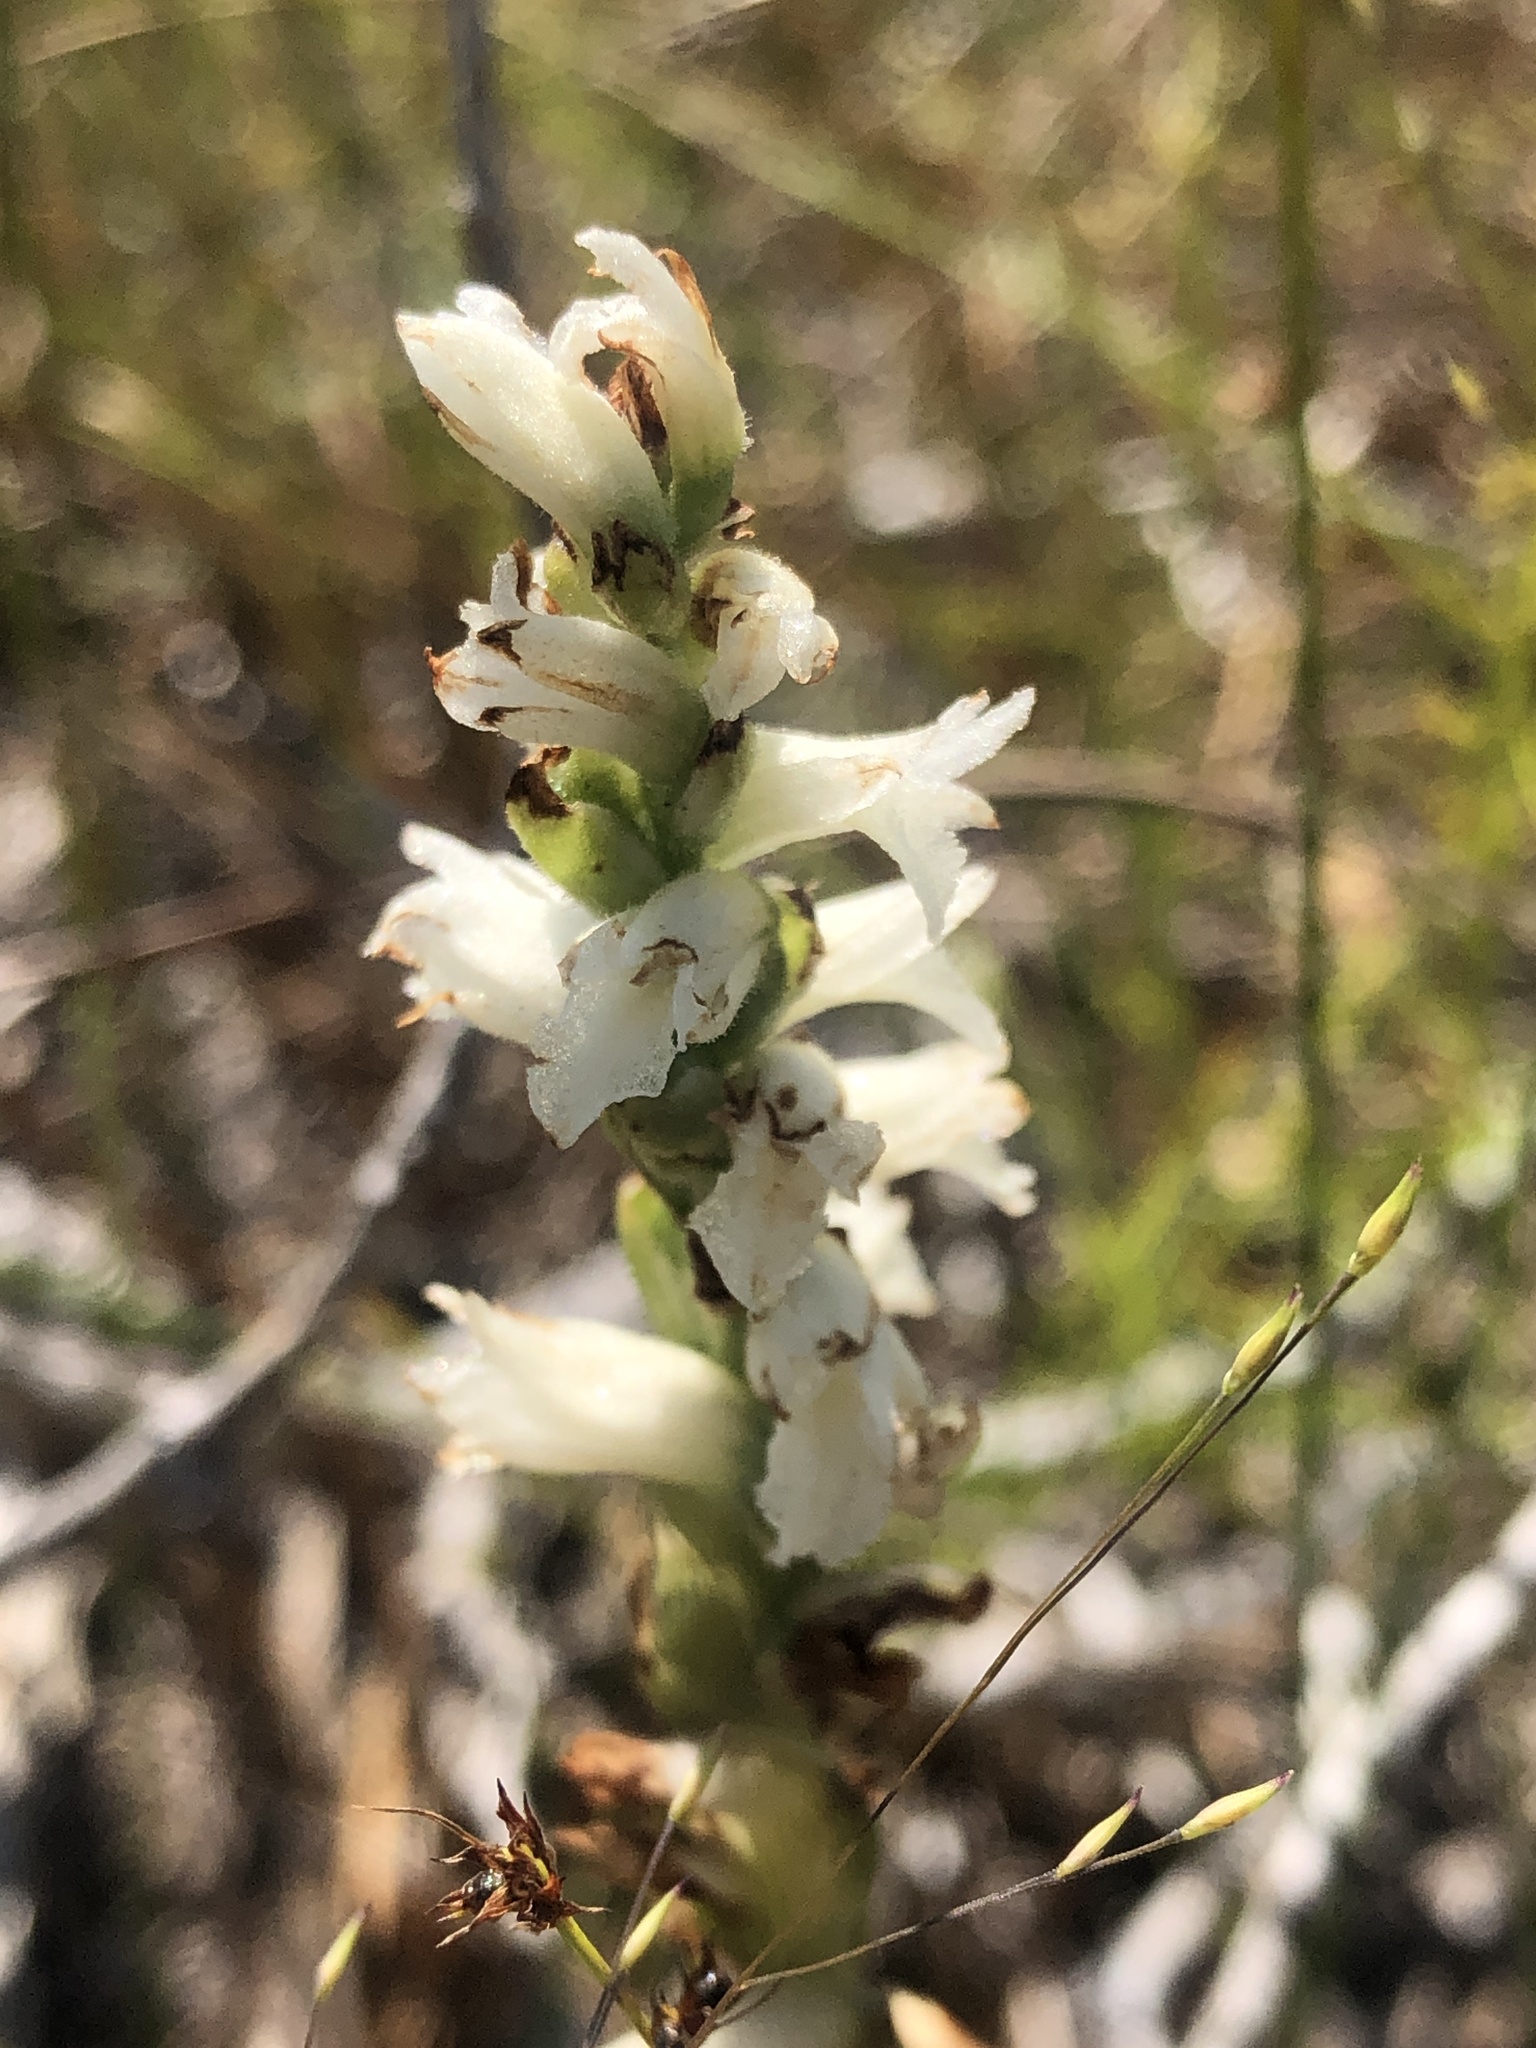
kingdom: Plantae
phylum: Tracheophyta
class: Liliopsida
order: Asparagales
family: Orchidaceae
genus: Spiranthes
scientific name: Spiranthes incurva
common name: Sphinx ladies'-tresses
